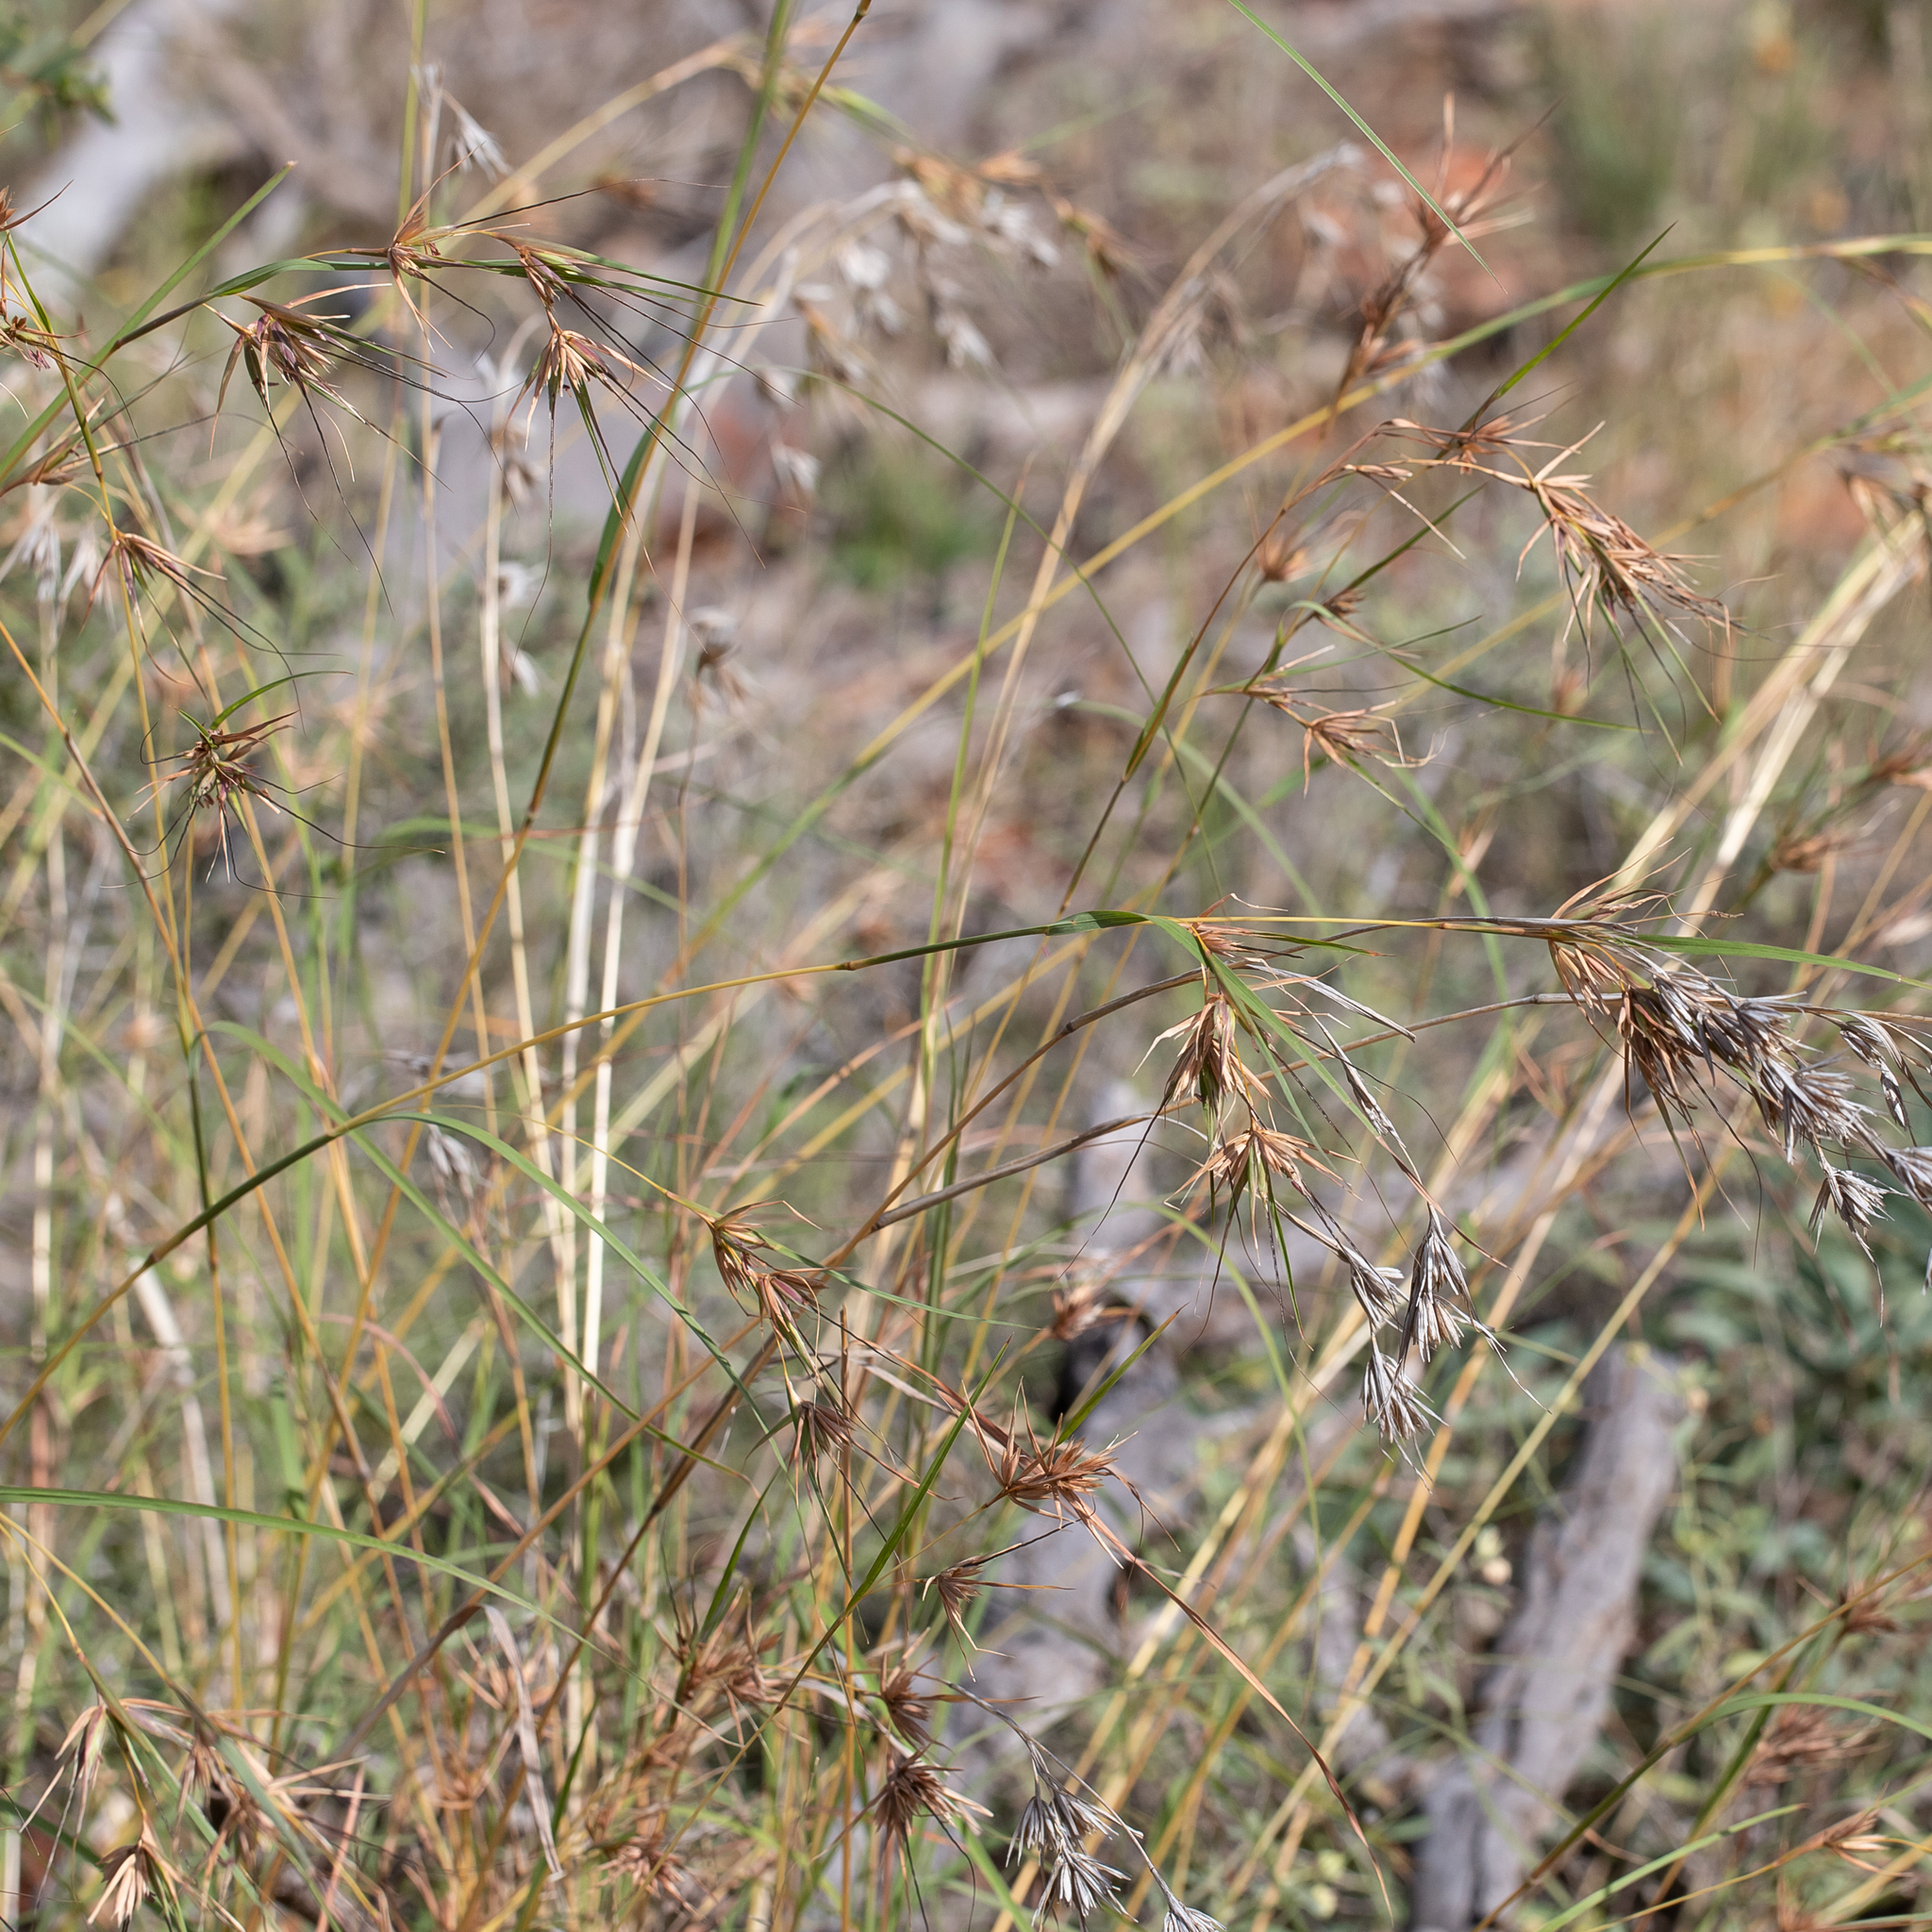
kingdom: Plantae
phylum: Tracheophyta
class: Liliopsida
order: Poales
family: Poaceae
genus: Themeda
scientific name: Themeda triandra
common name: Kangaroo grass
